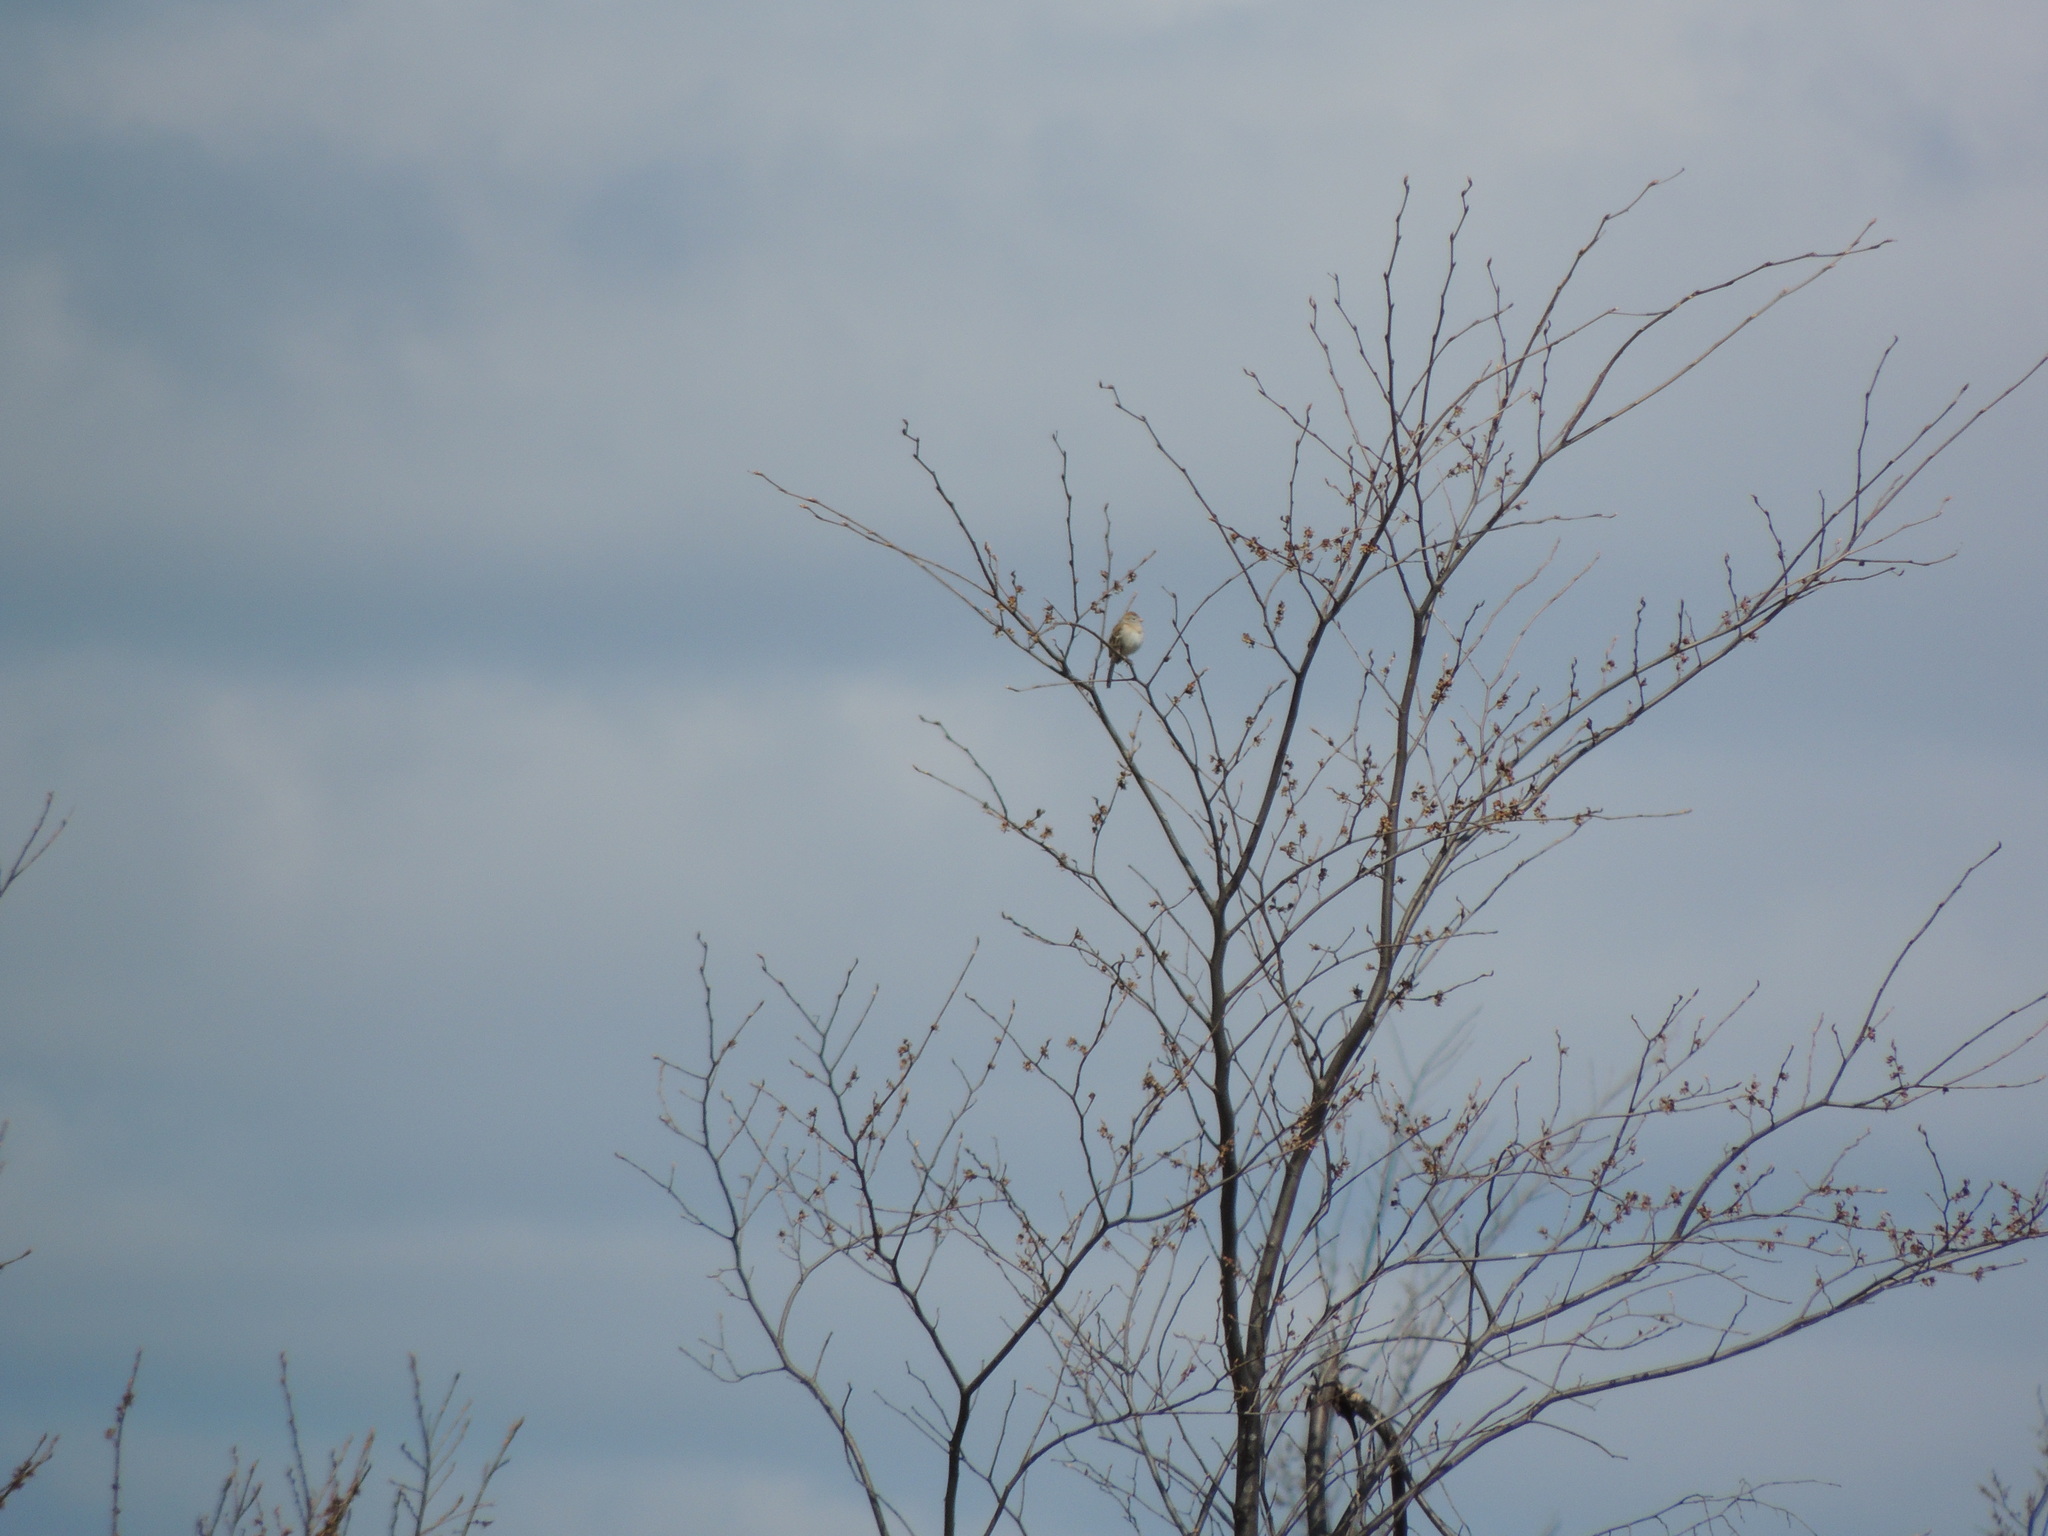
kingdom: Animalia
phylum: Chordata
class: Aves
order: Passeriformes
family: Passerellidae
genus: Spizella
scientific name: Spizella pusilla
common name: Field sparrow
